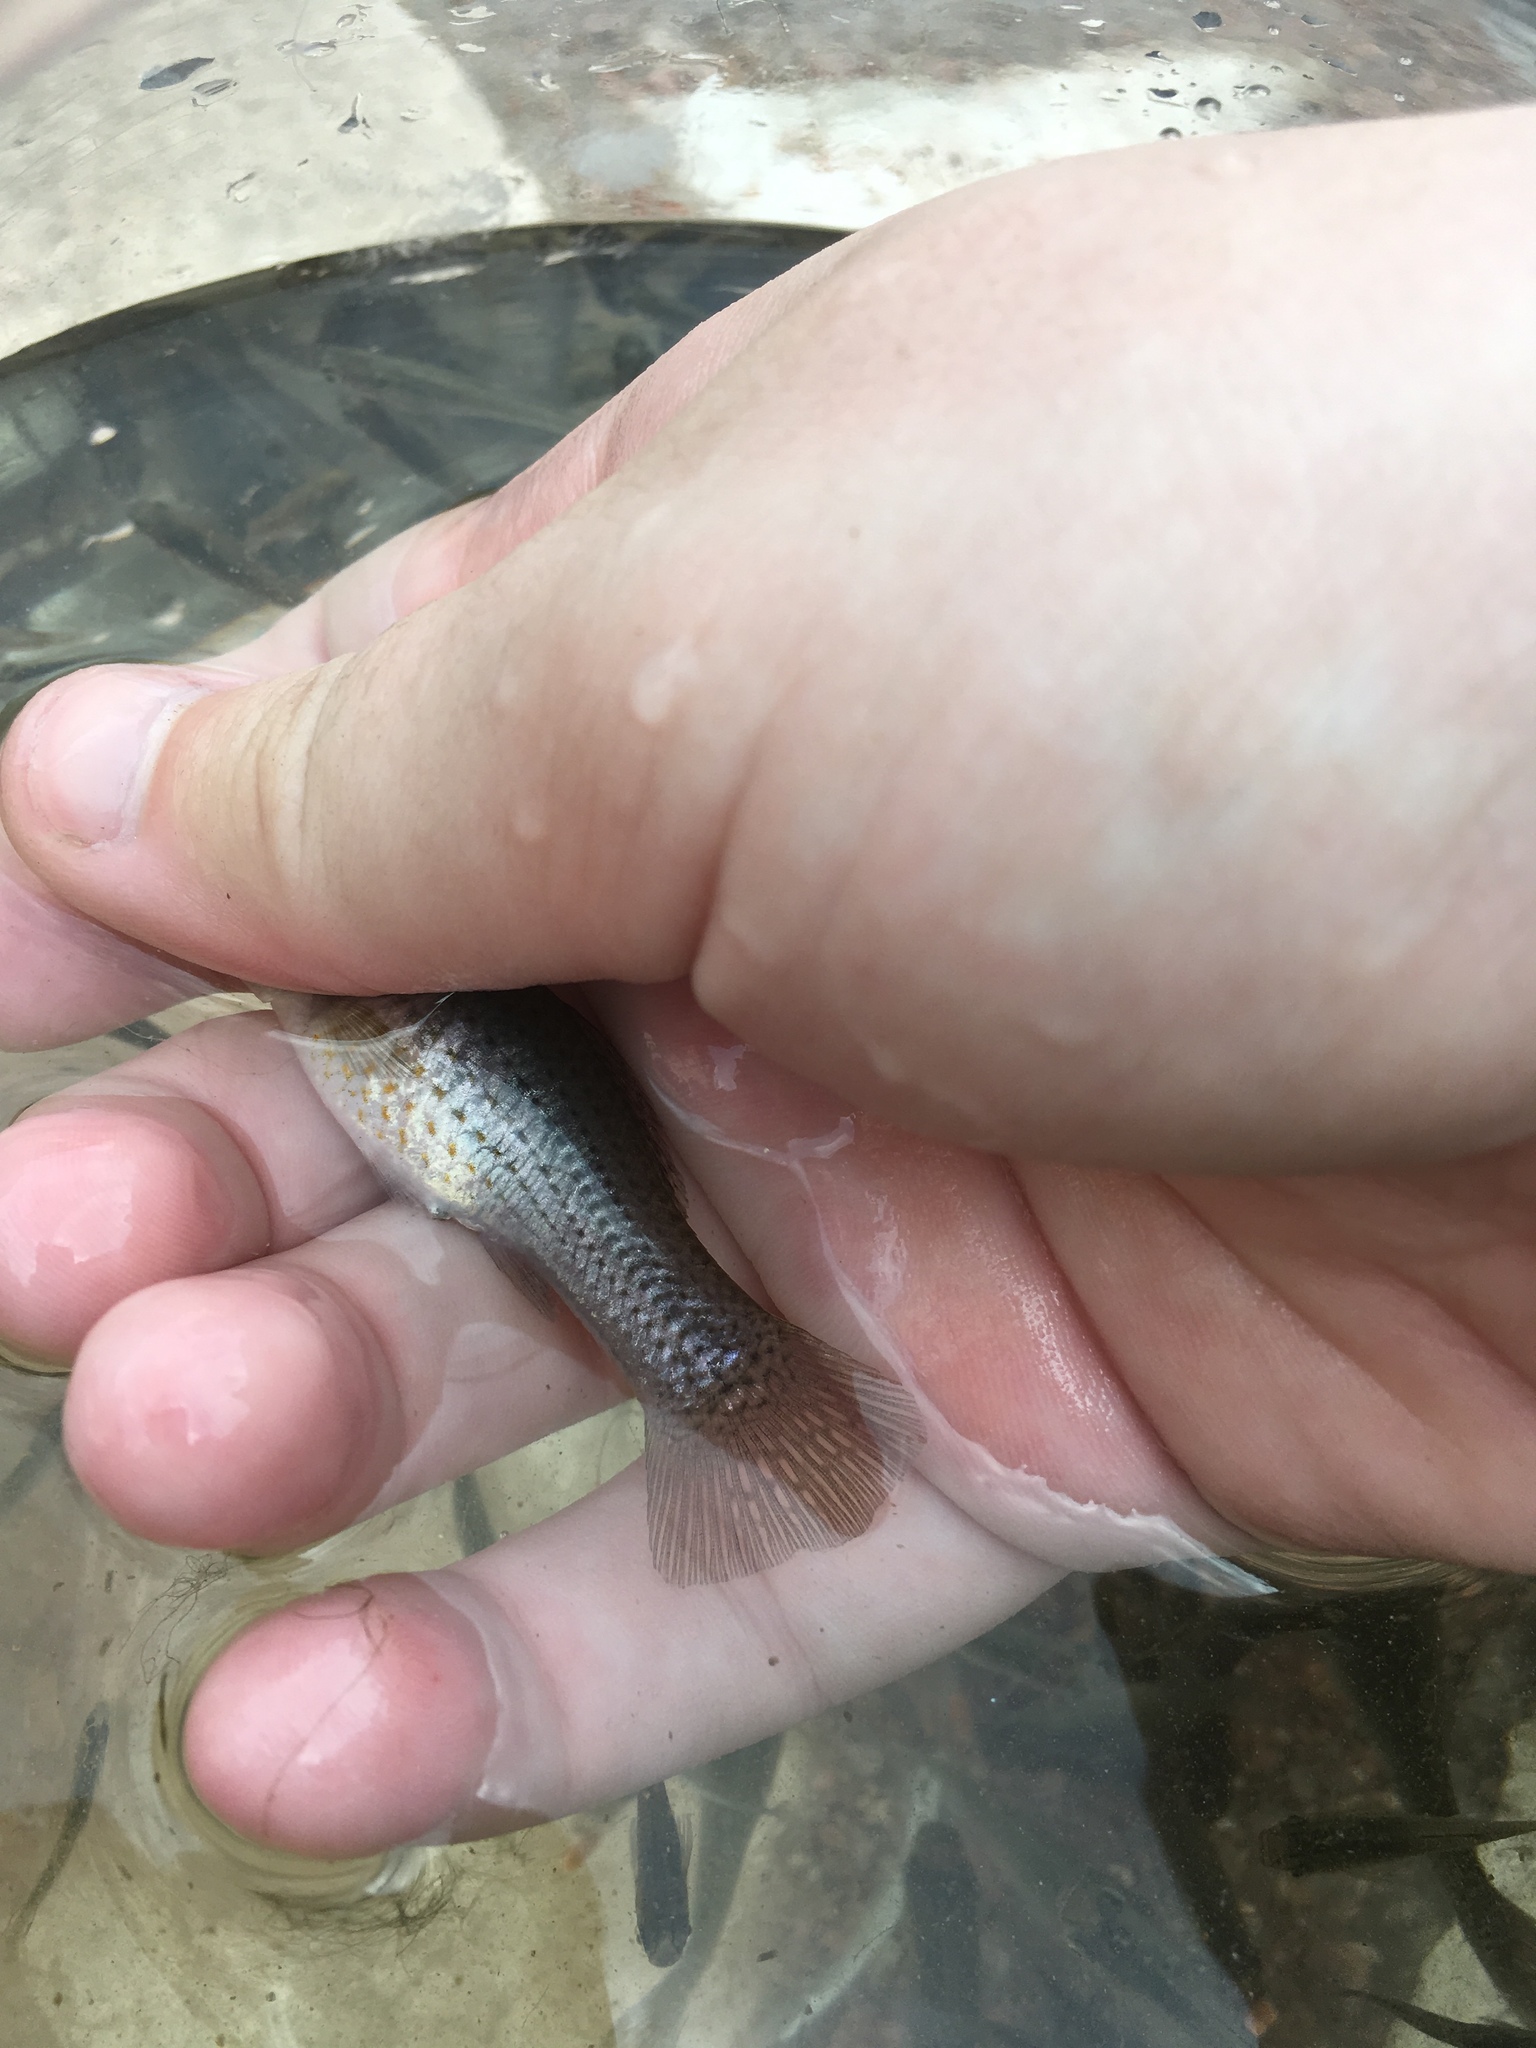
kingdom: Animalia
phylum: Chordata
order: Cyprinodontiformes
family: Poeciliidae
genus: Poecilia
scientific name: Poecilia latipinna
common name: Sailfin molly
